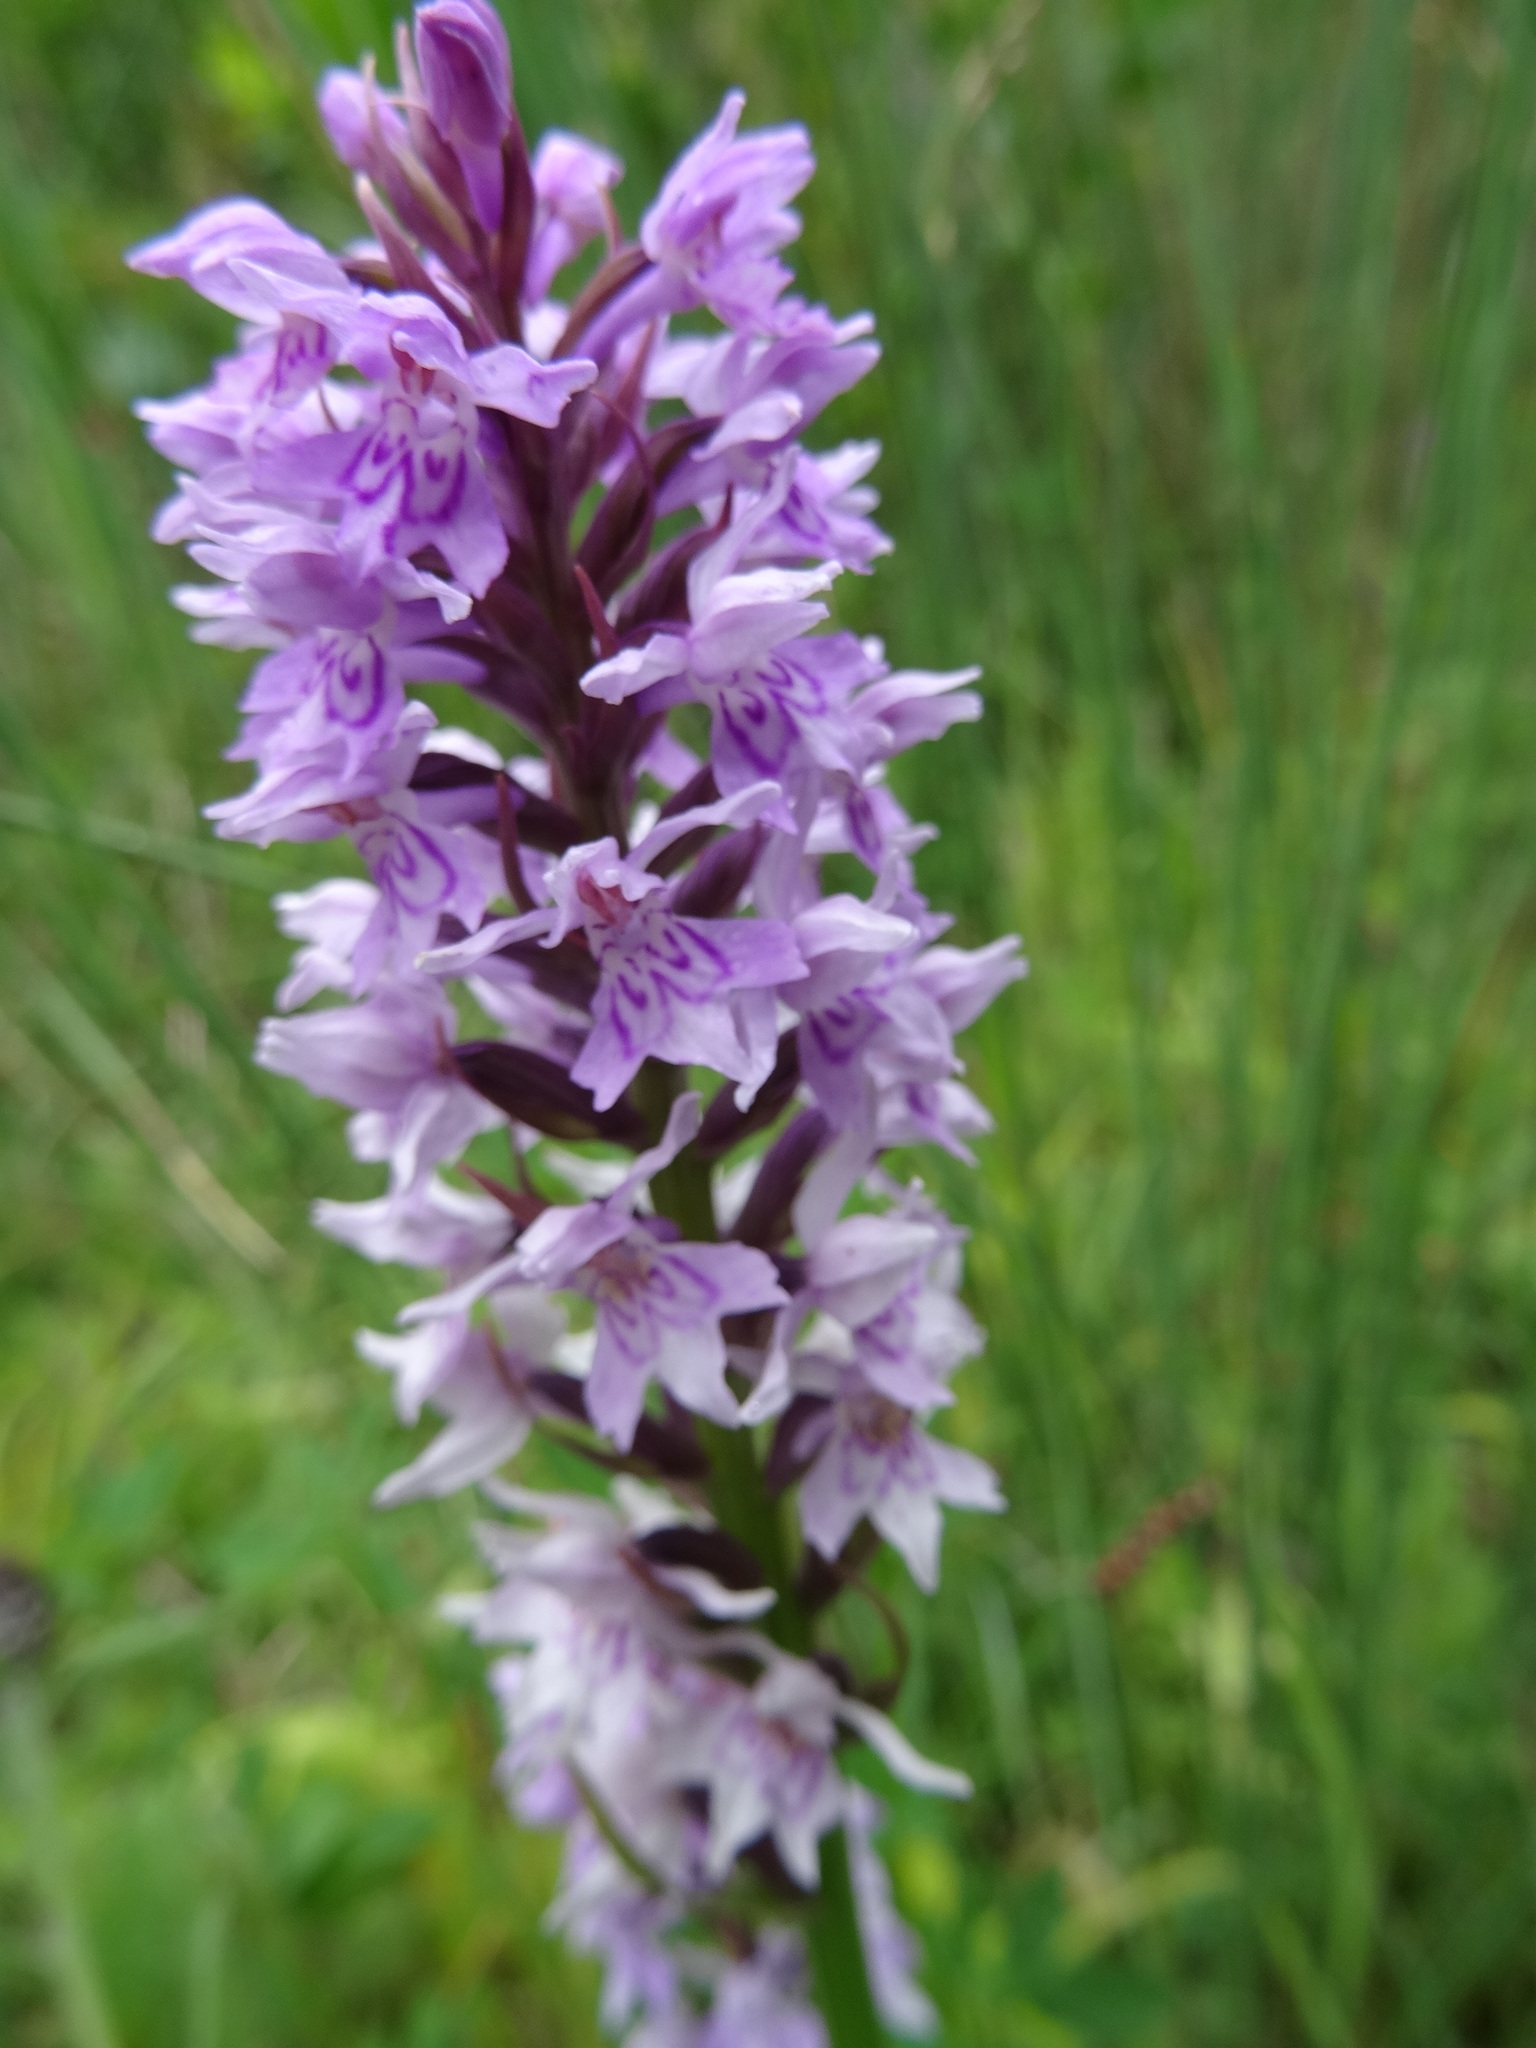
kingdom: Plantae
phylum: Tracheophyta
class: Liliopsida
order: Asparagales
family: Orchidaceae
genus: Dactylorhiza
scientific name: Dactylorhiza maculata
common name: Heath spotted-orchid
